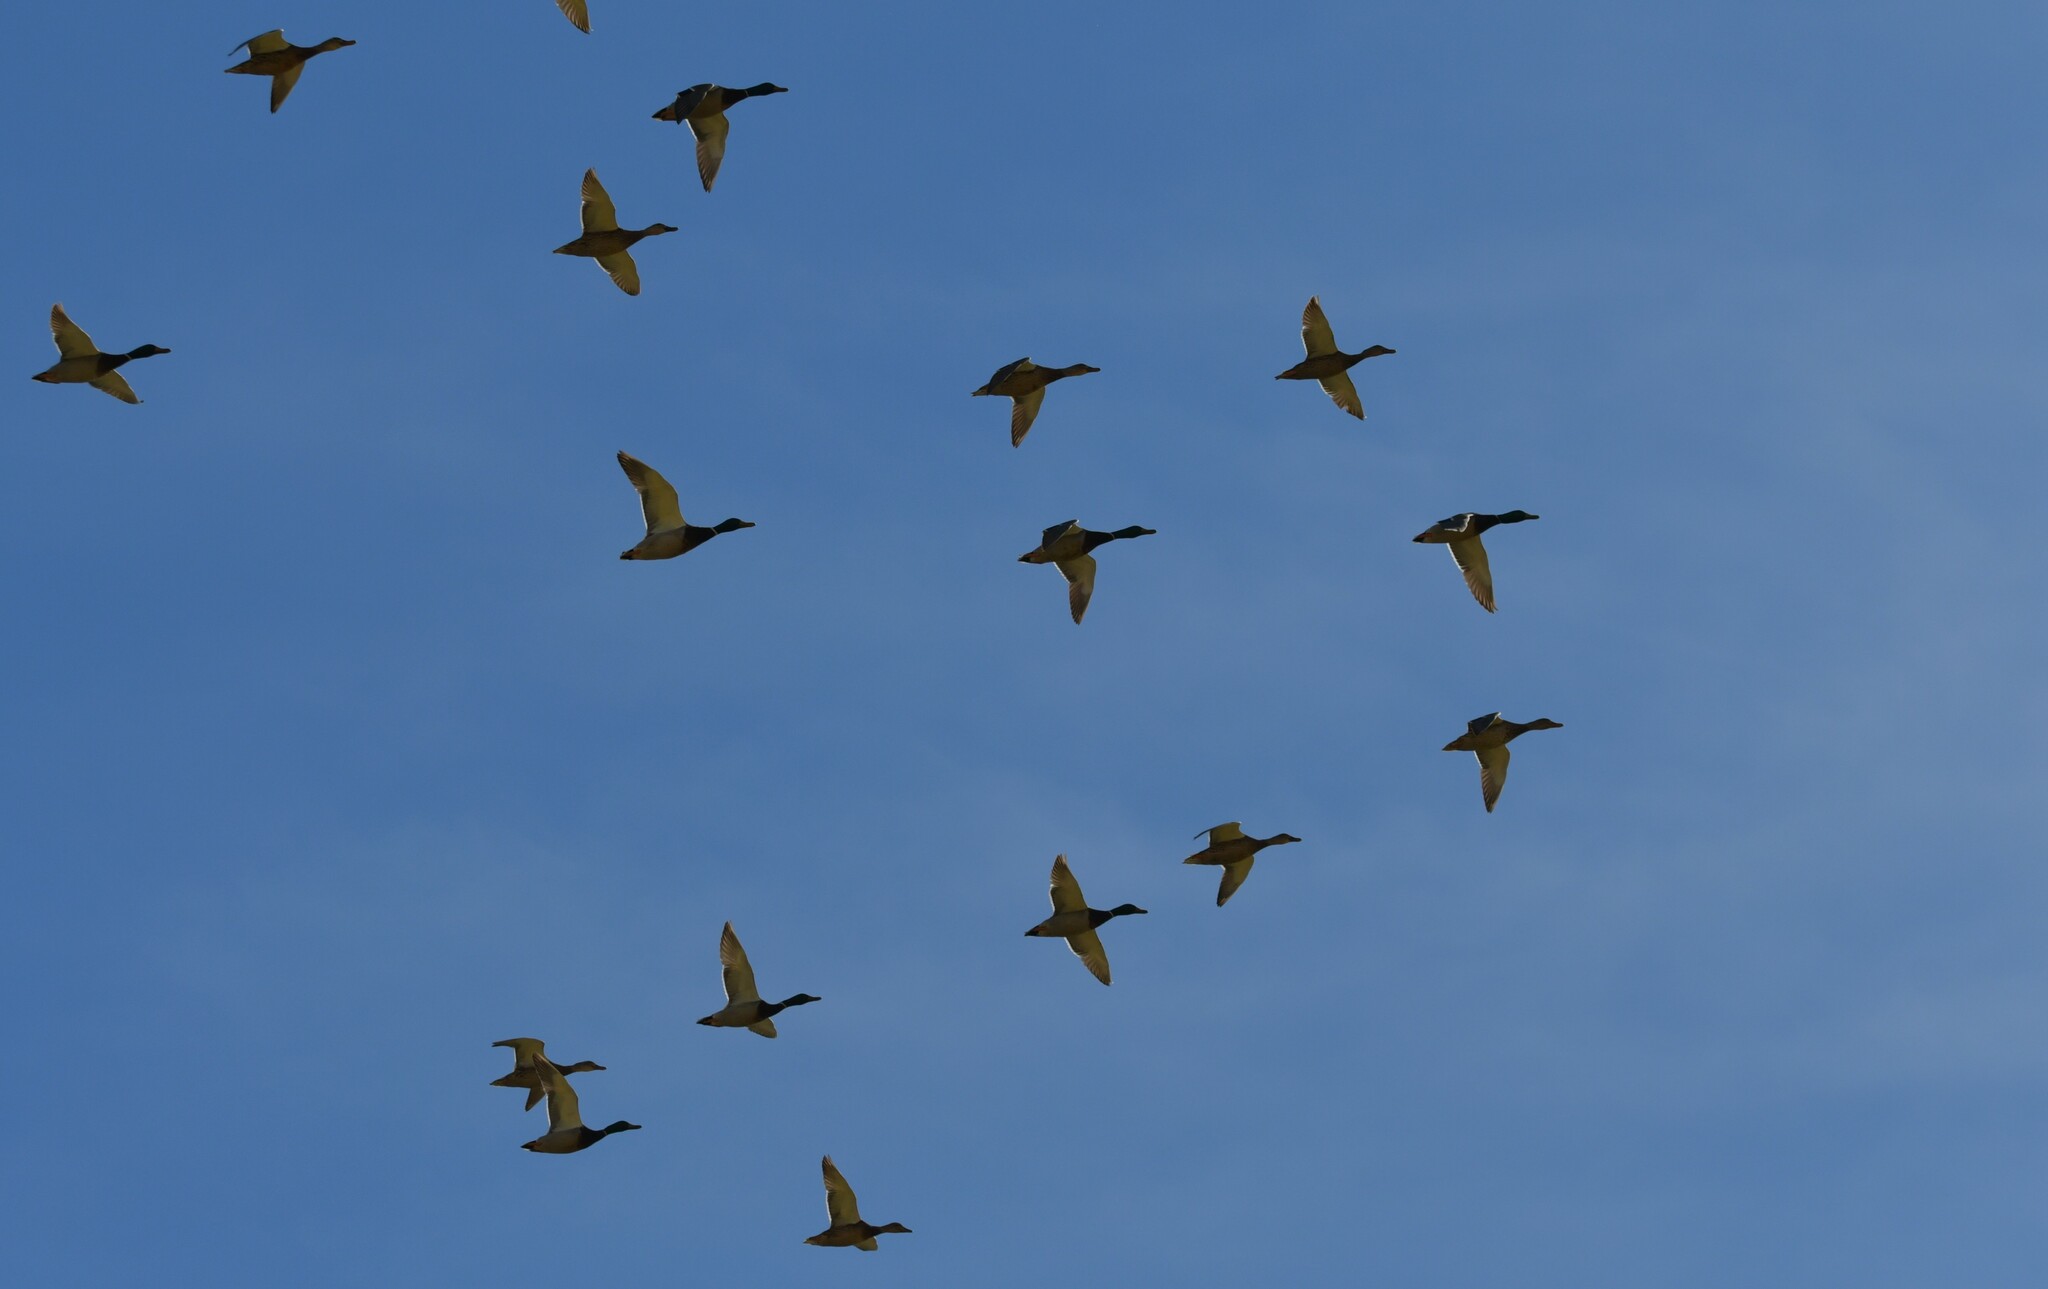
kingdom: Animalia
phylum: Chordata
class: Aves
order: Anseriformes
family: Anatidae
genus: Anas
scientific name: Anas platyrhynchos
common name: Mallard
